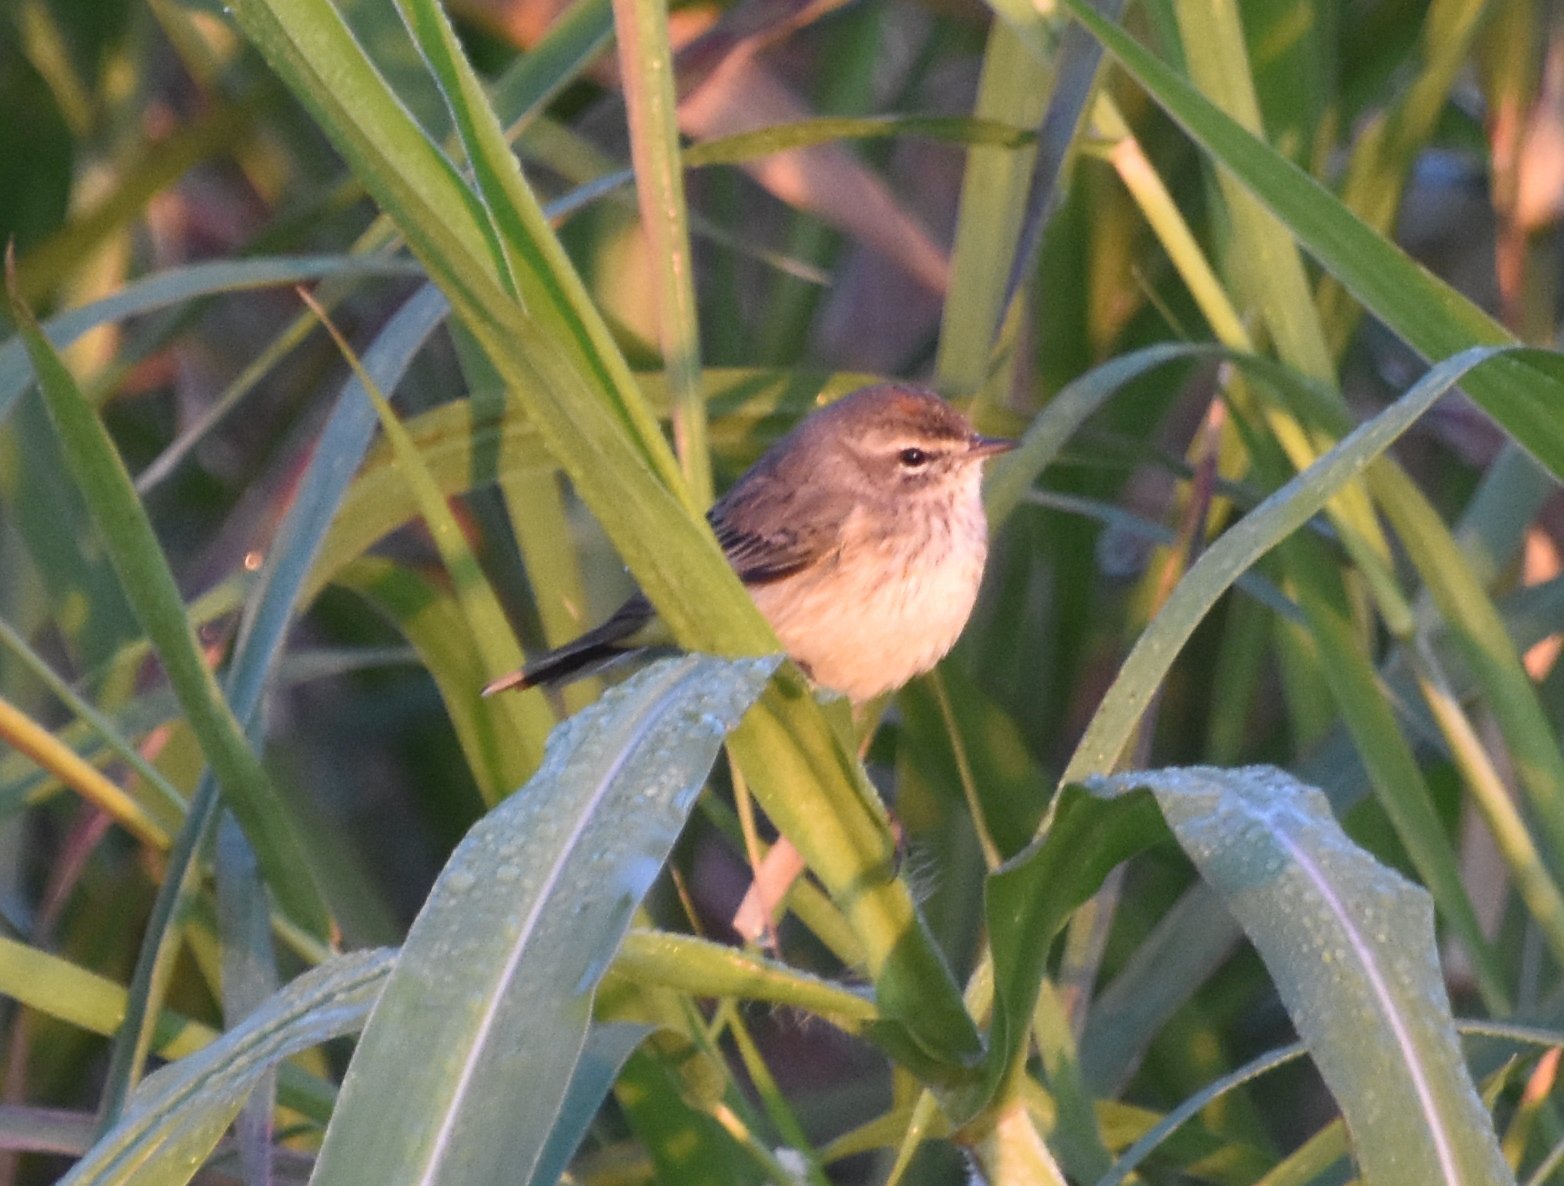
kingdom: Animalia
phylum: Chordata
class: Aves
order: Passeriformes
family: Parulidae
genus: Setophaga
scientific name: Setophaga palmarum
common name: Palm warbler
